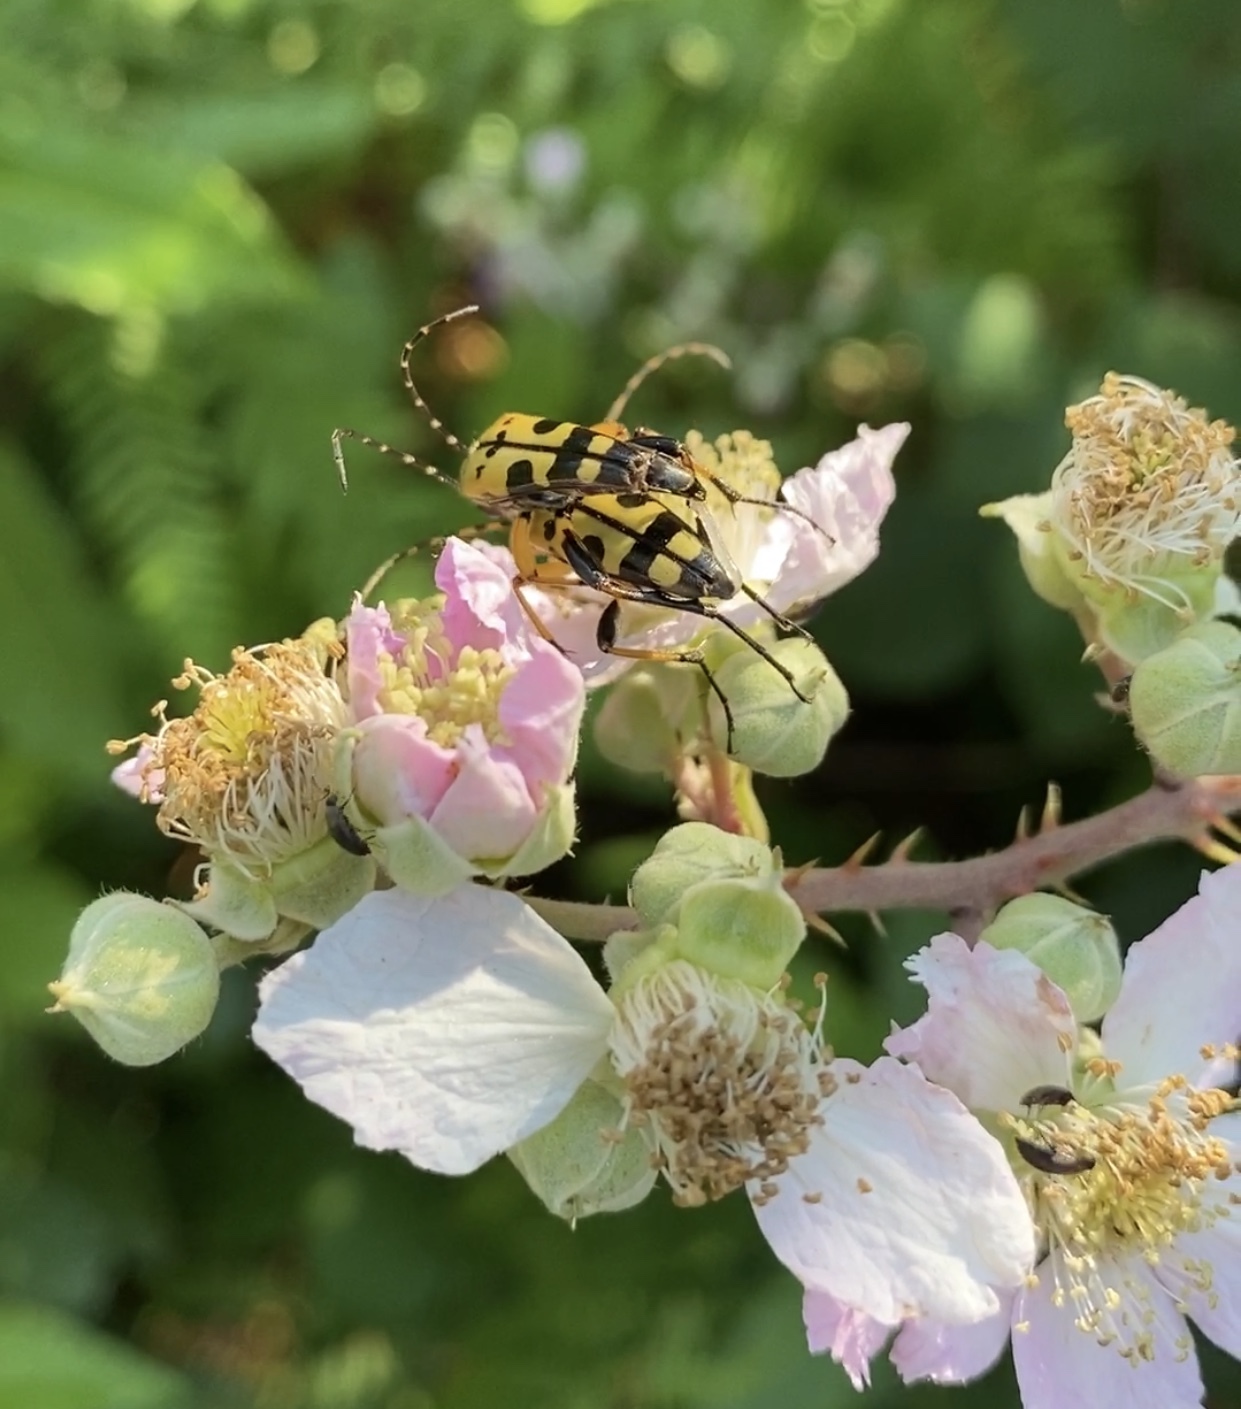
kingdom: Animalia
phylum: Arthropoda
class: Insecta
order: Coleoptera
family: Cerambycidae
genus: Rutpela
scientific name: Rutpela maculata
